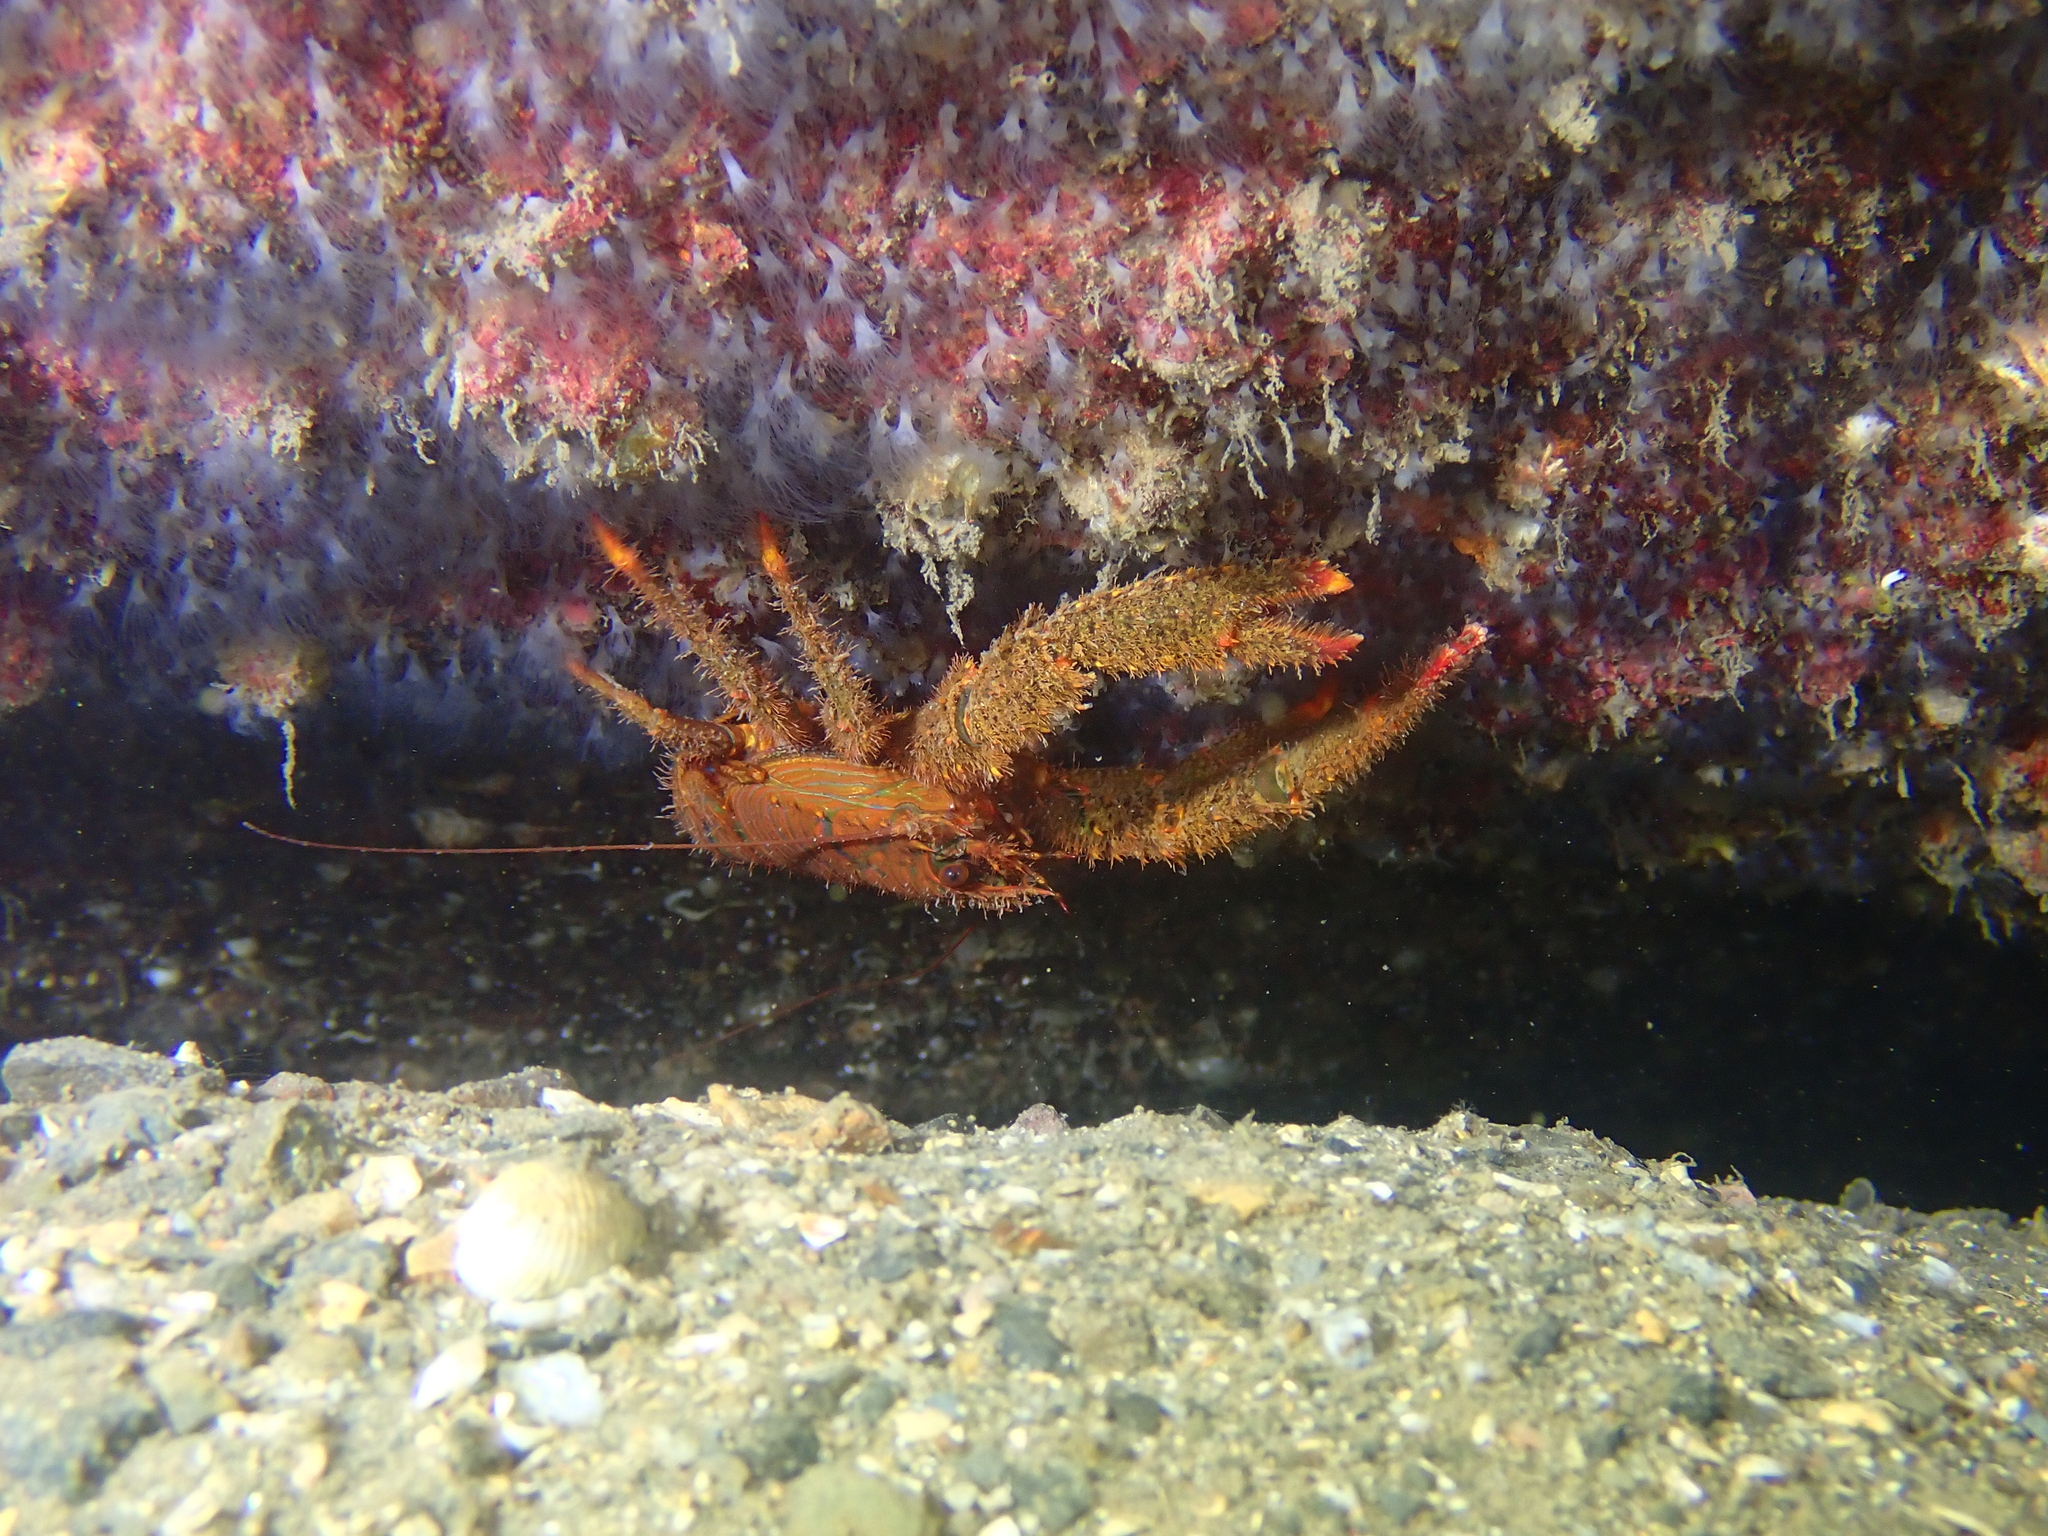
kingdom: Animalia
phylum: Arthropoda
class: Malacostraca
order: Decapoda
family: Galatheidae
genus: Galathea
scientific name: Galathea strigosa
